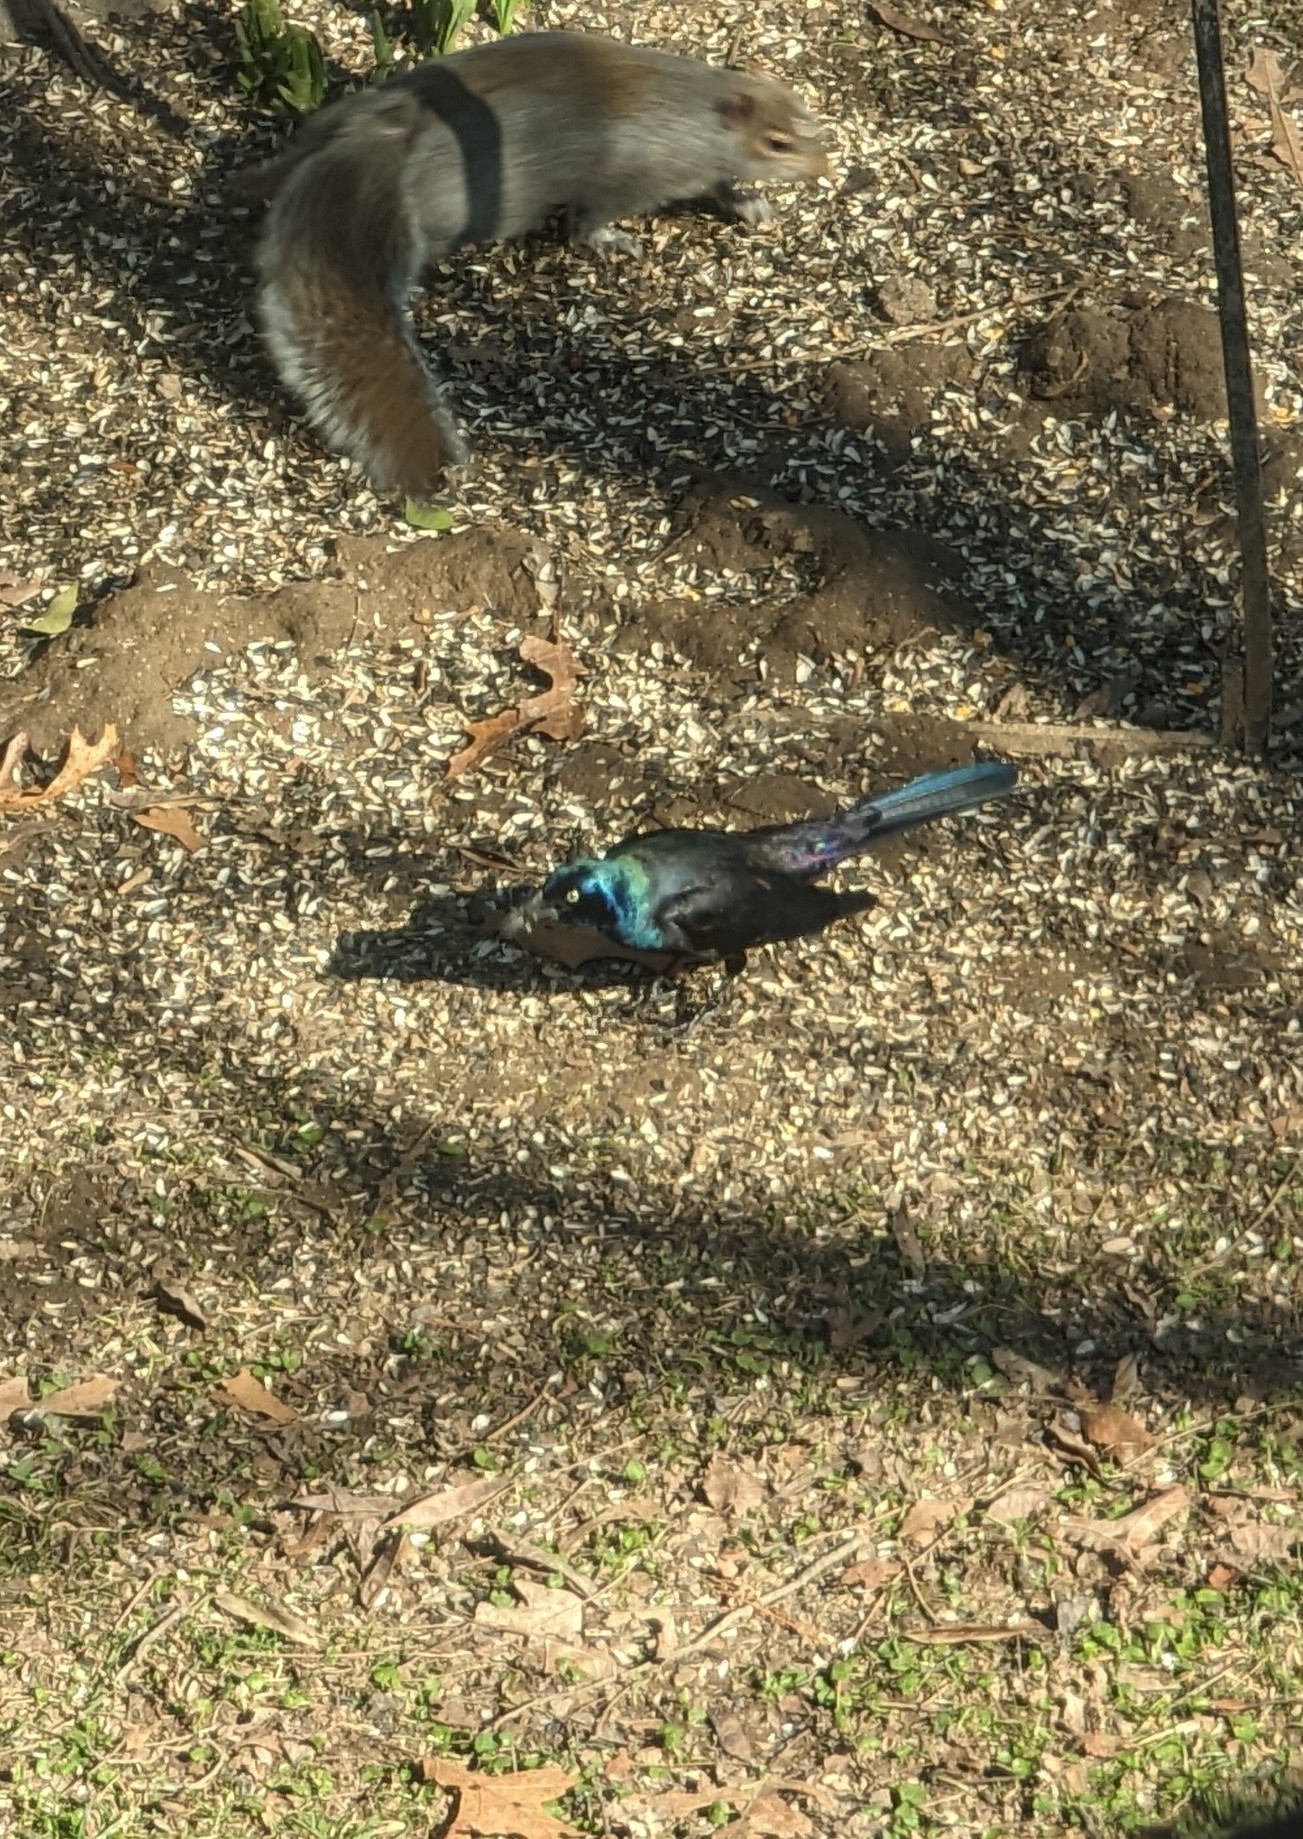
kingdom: Animalia
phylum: Chordata
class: Aves
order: Passeriformes
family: Icteridae
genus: Quiscalus
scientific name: Quiscalus quiscula
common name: Common grackle
